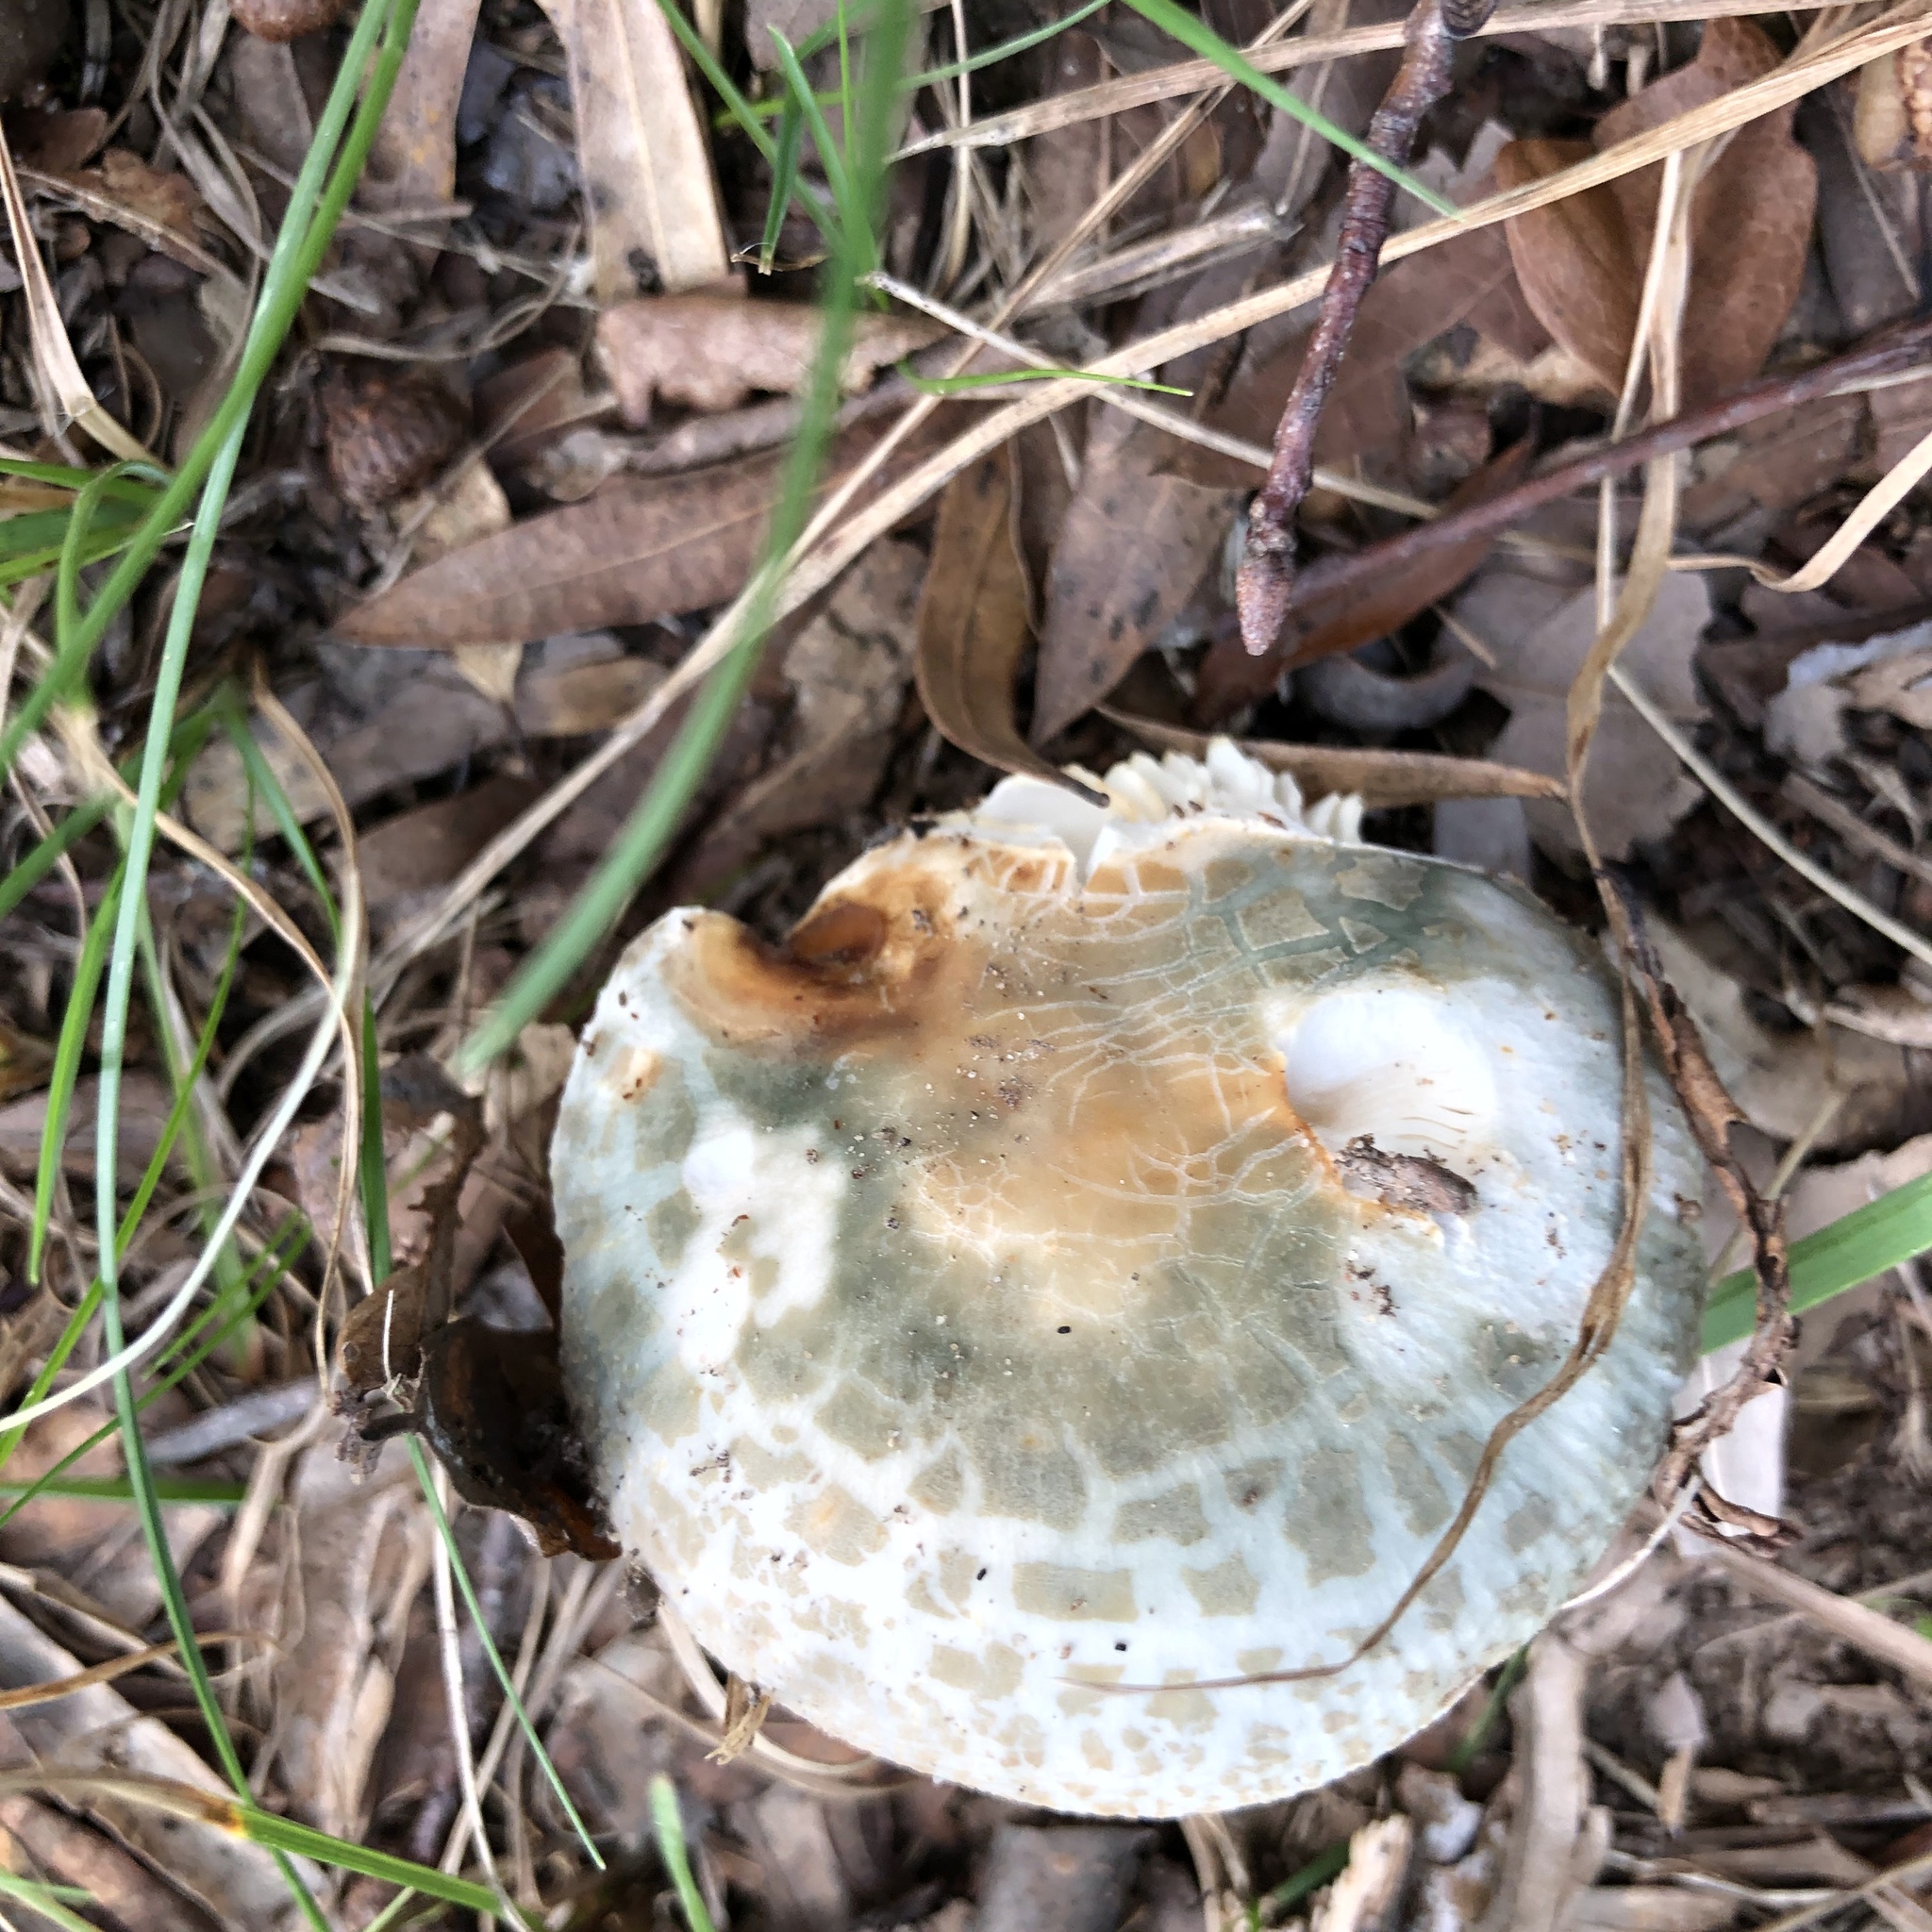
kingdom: Fungi
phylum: Basidiomycota
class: Agaricomycetes
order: Russulales
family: Russulaceae
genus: Russula
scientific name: Russula crustosa
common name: Green quilt russula
